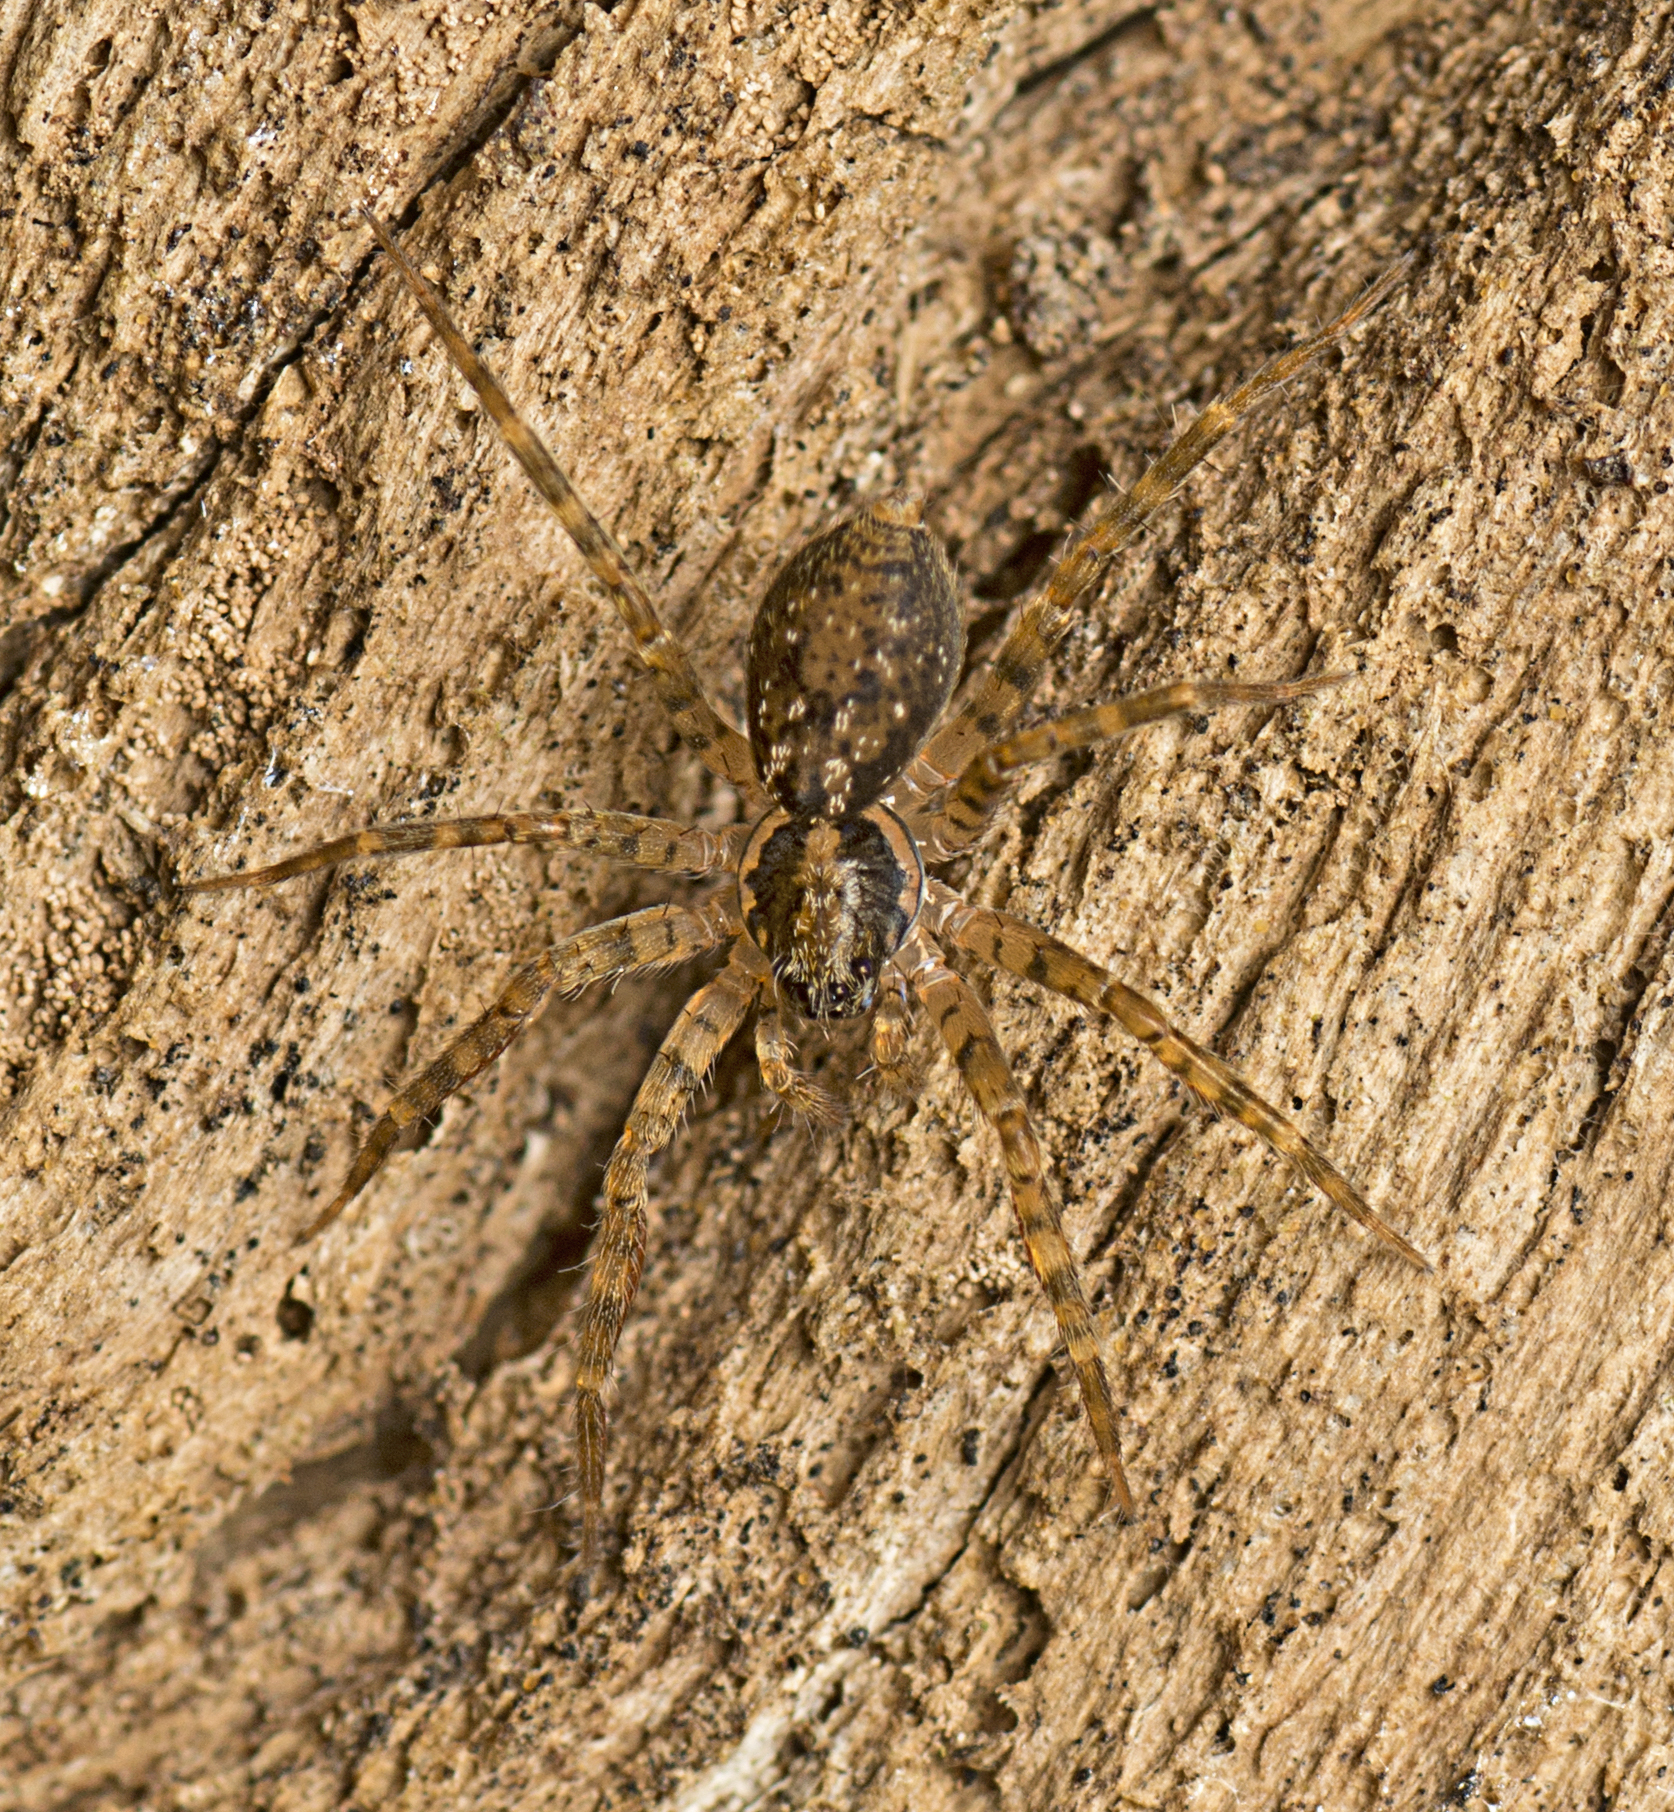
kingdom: Animalia
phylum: Arthropoda
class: Arachnida
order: Araneae
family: Toxopidae
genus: Toxopsoides
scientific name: Toxopsoides erici
